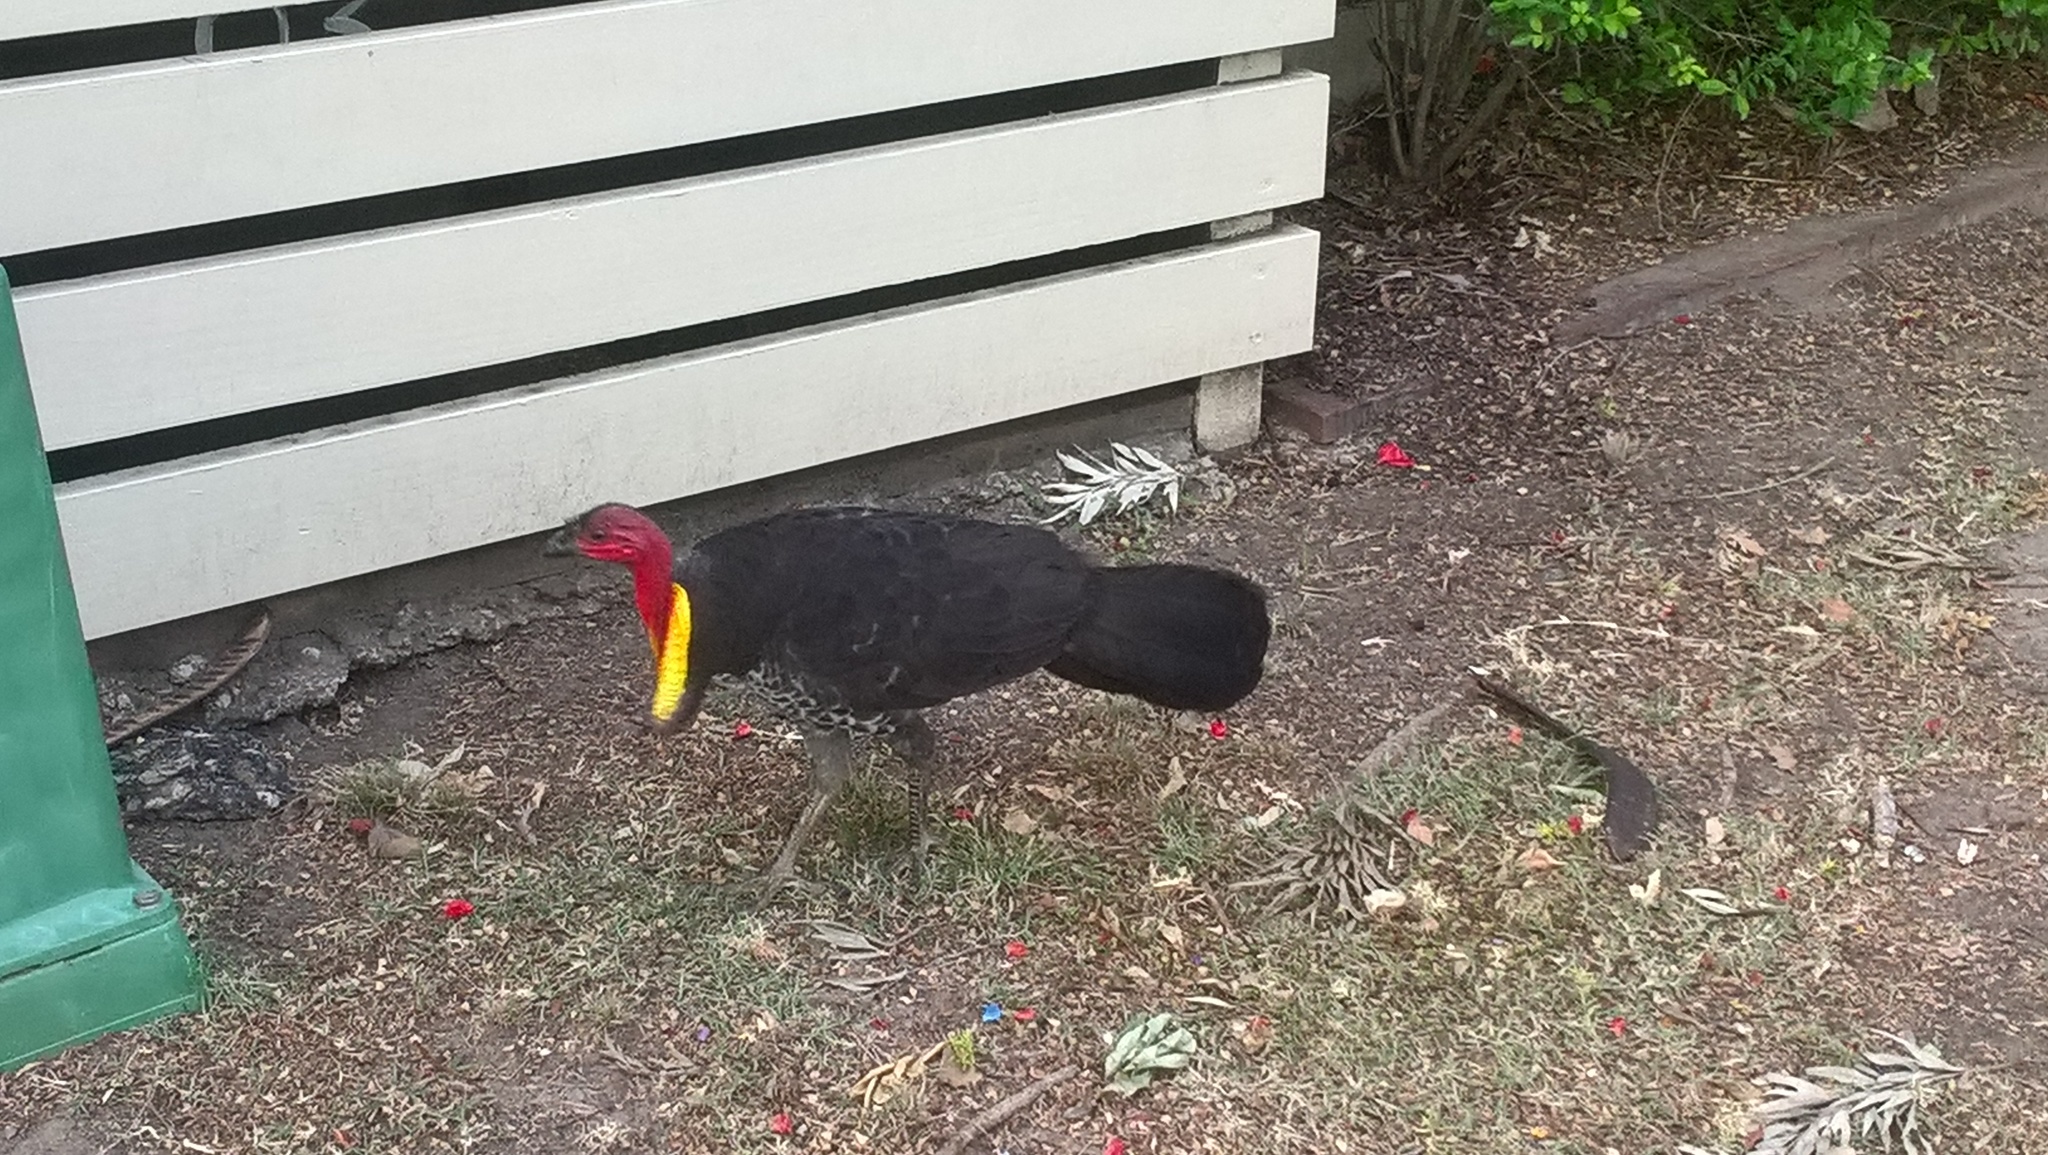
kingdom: Animalia
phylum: Chordata
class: Aves
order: Galliformes
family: Megapodiidae
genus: Alectura
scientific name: Alectura lathami
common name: Australian brushturkey
